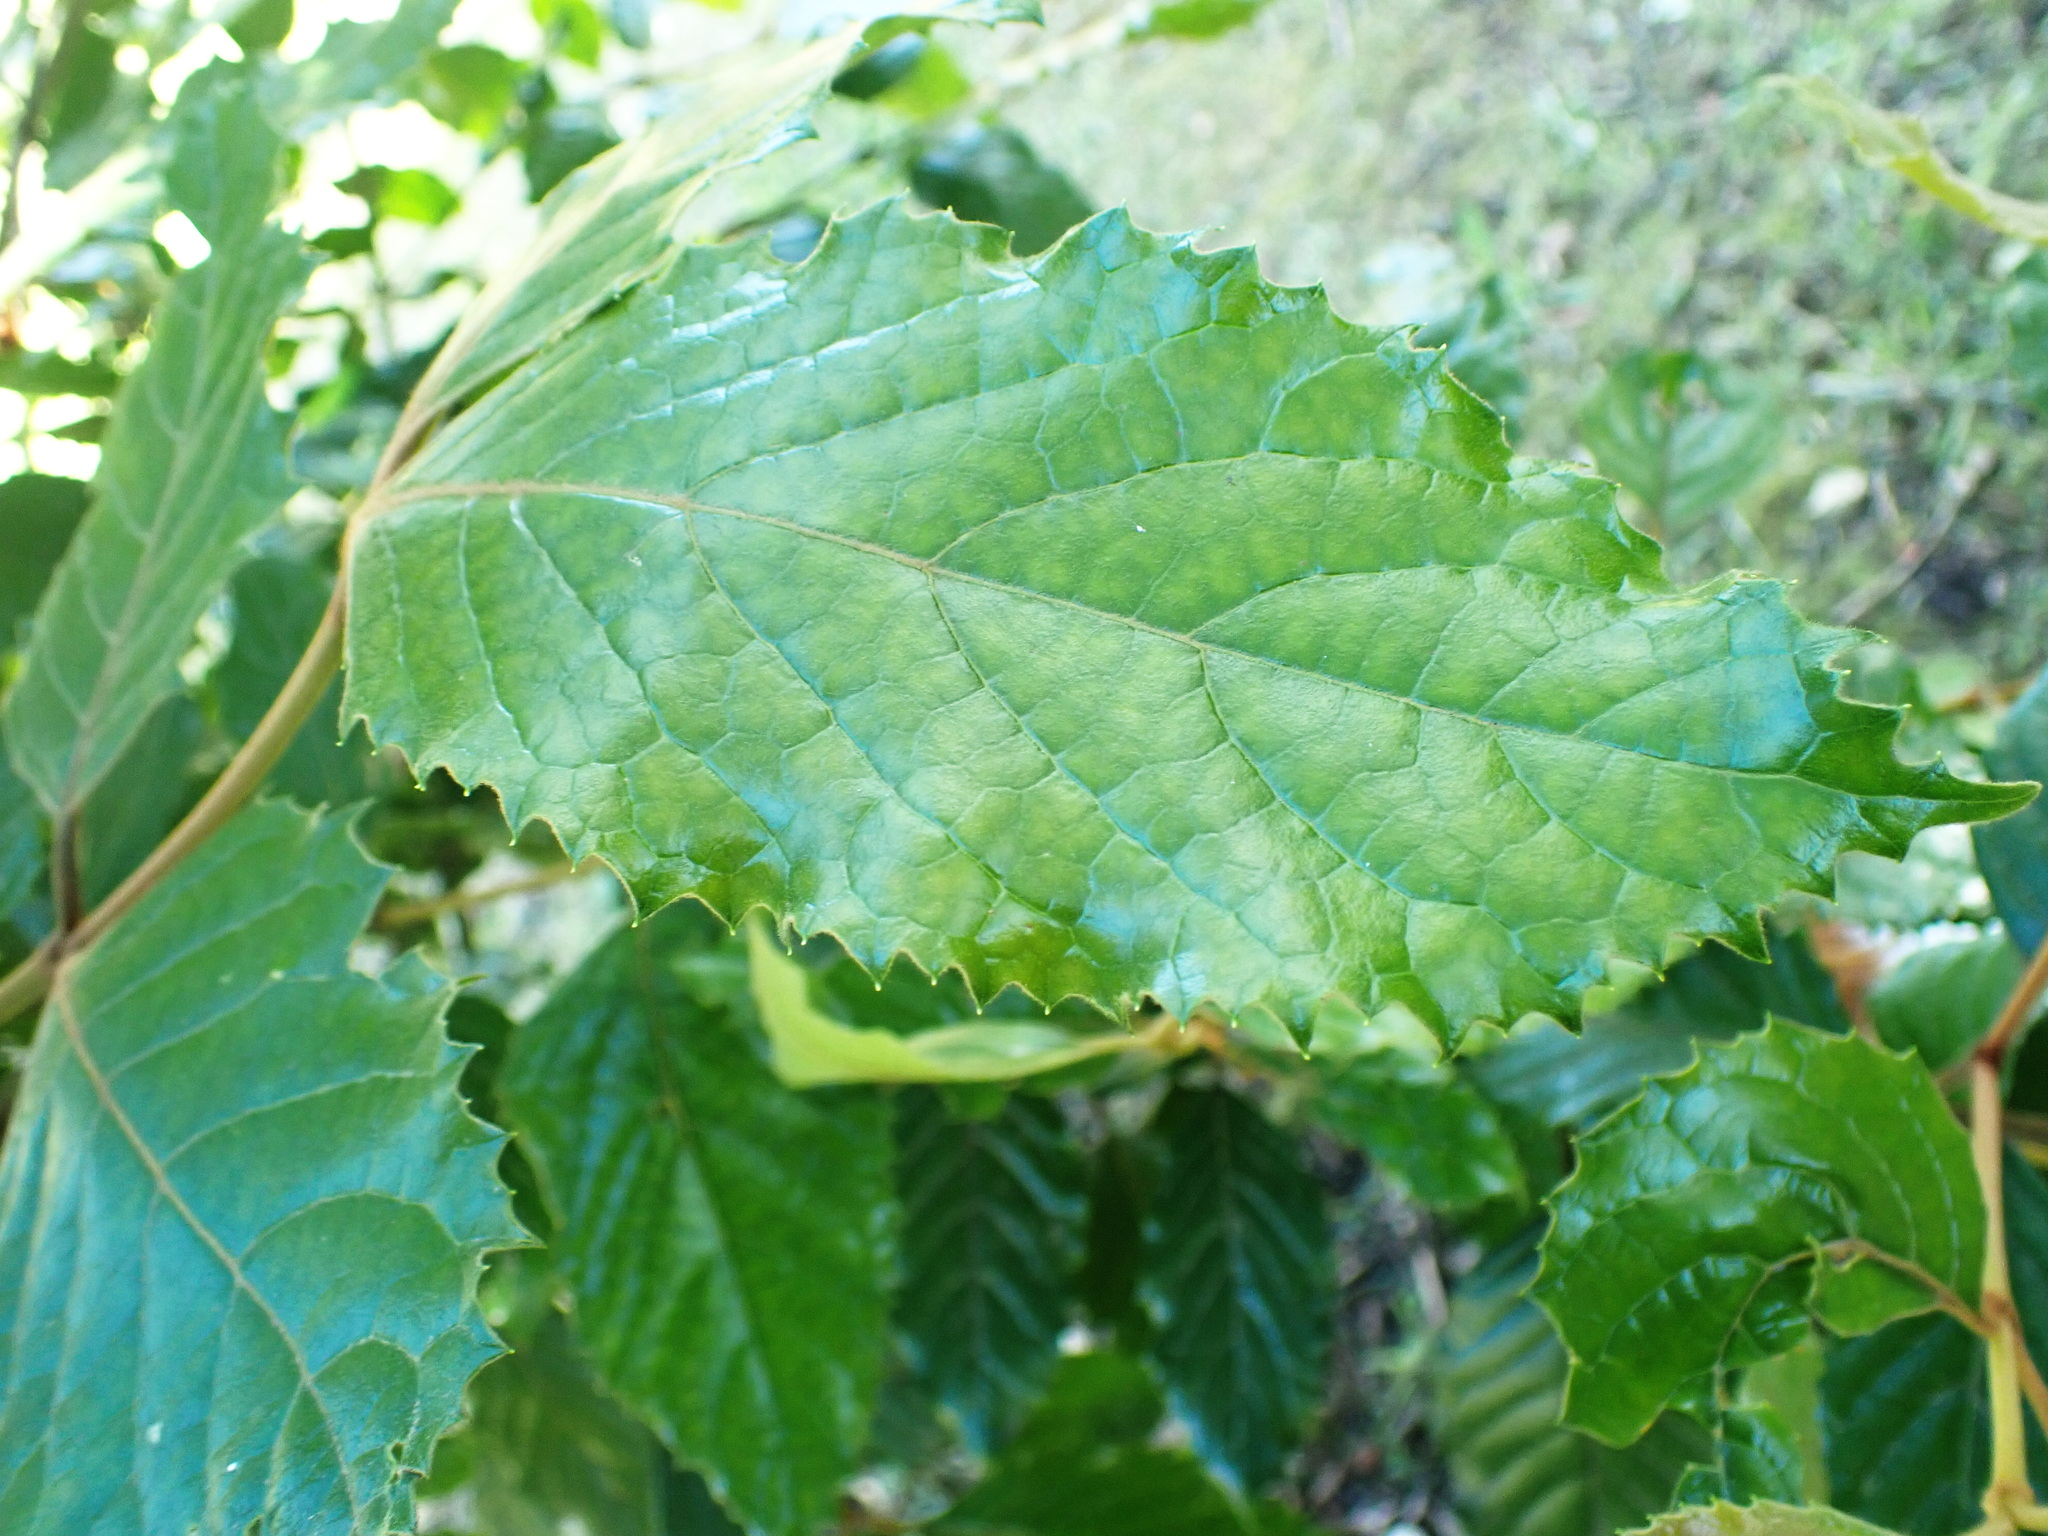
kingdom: Plantae
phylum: Tracheophyta
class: Magnoliopsida
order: Cornales
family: Curtisiaceae
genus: Curtisia
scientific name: Curtisia dentata
